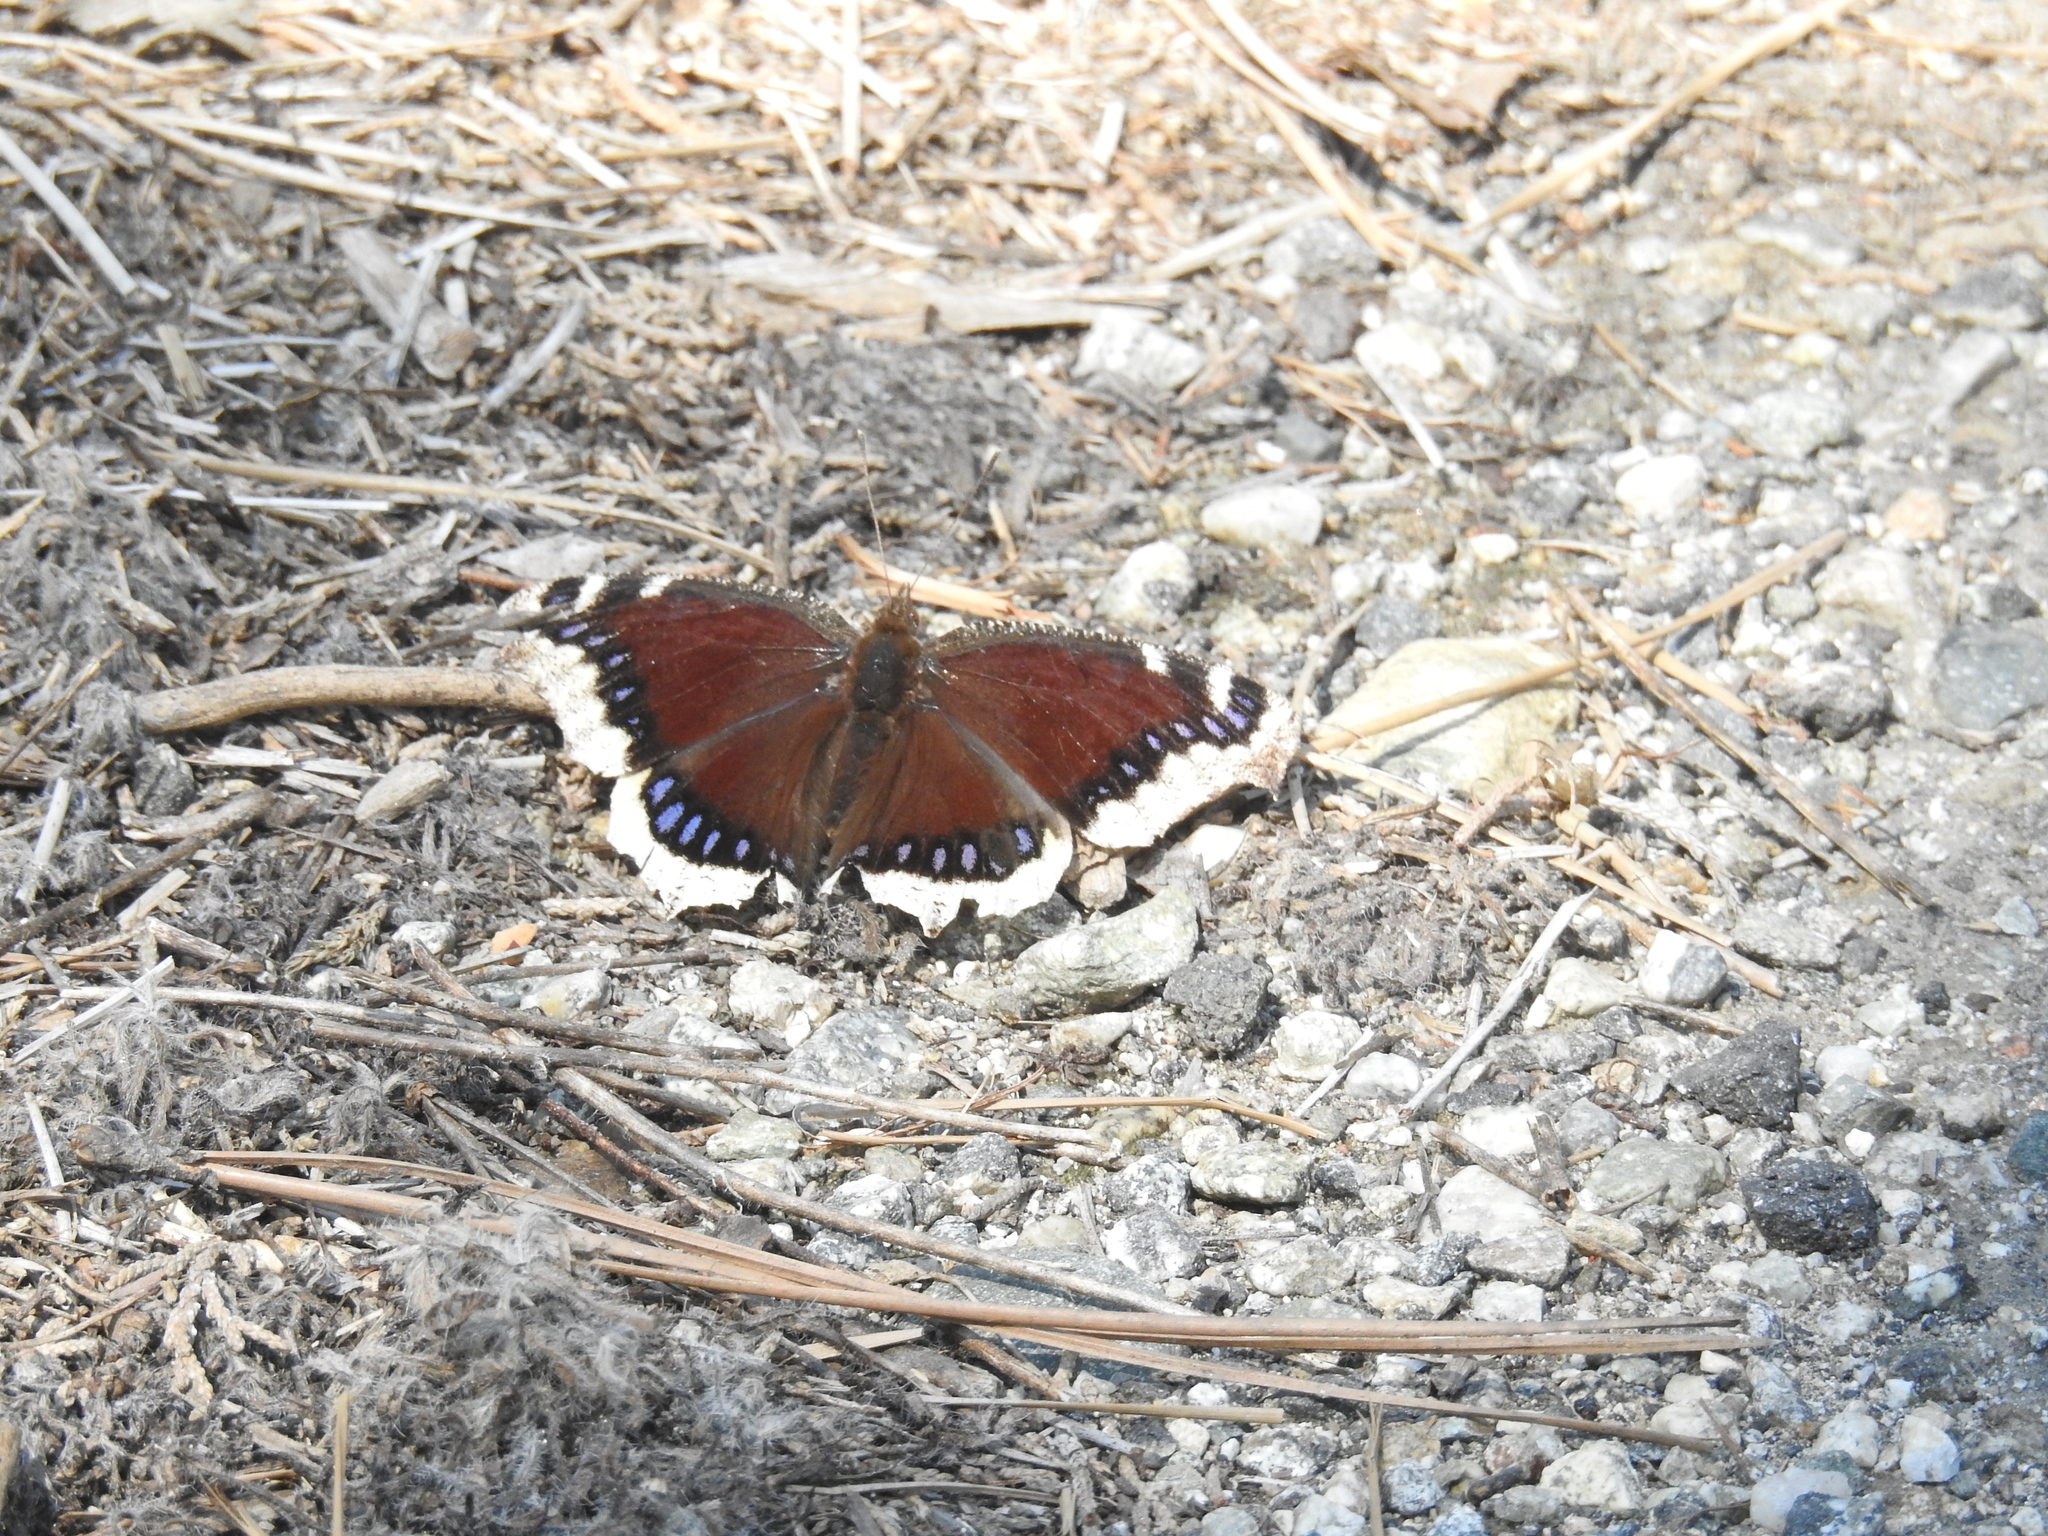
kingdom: Animalia
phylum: Arthropoda
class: Insecta
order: Lepidoptera
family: Nymphalidae
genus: Nymphalis
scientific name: Nymphalis antiopa
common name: Camberwell beauty
